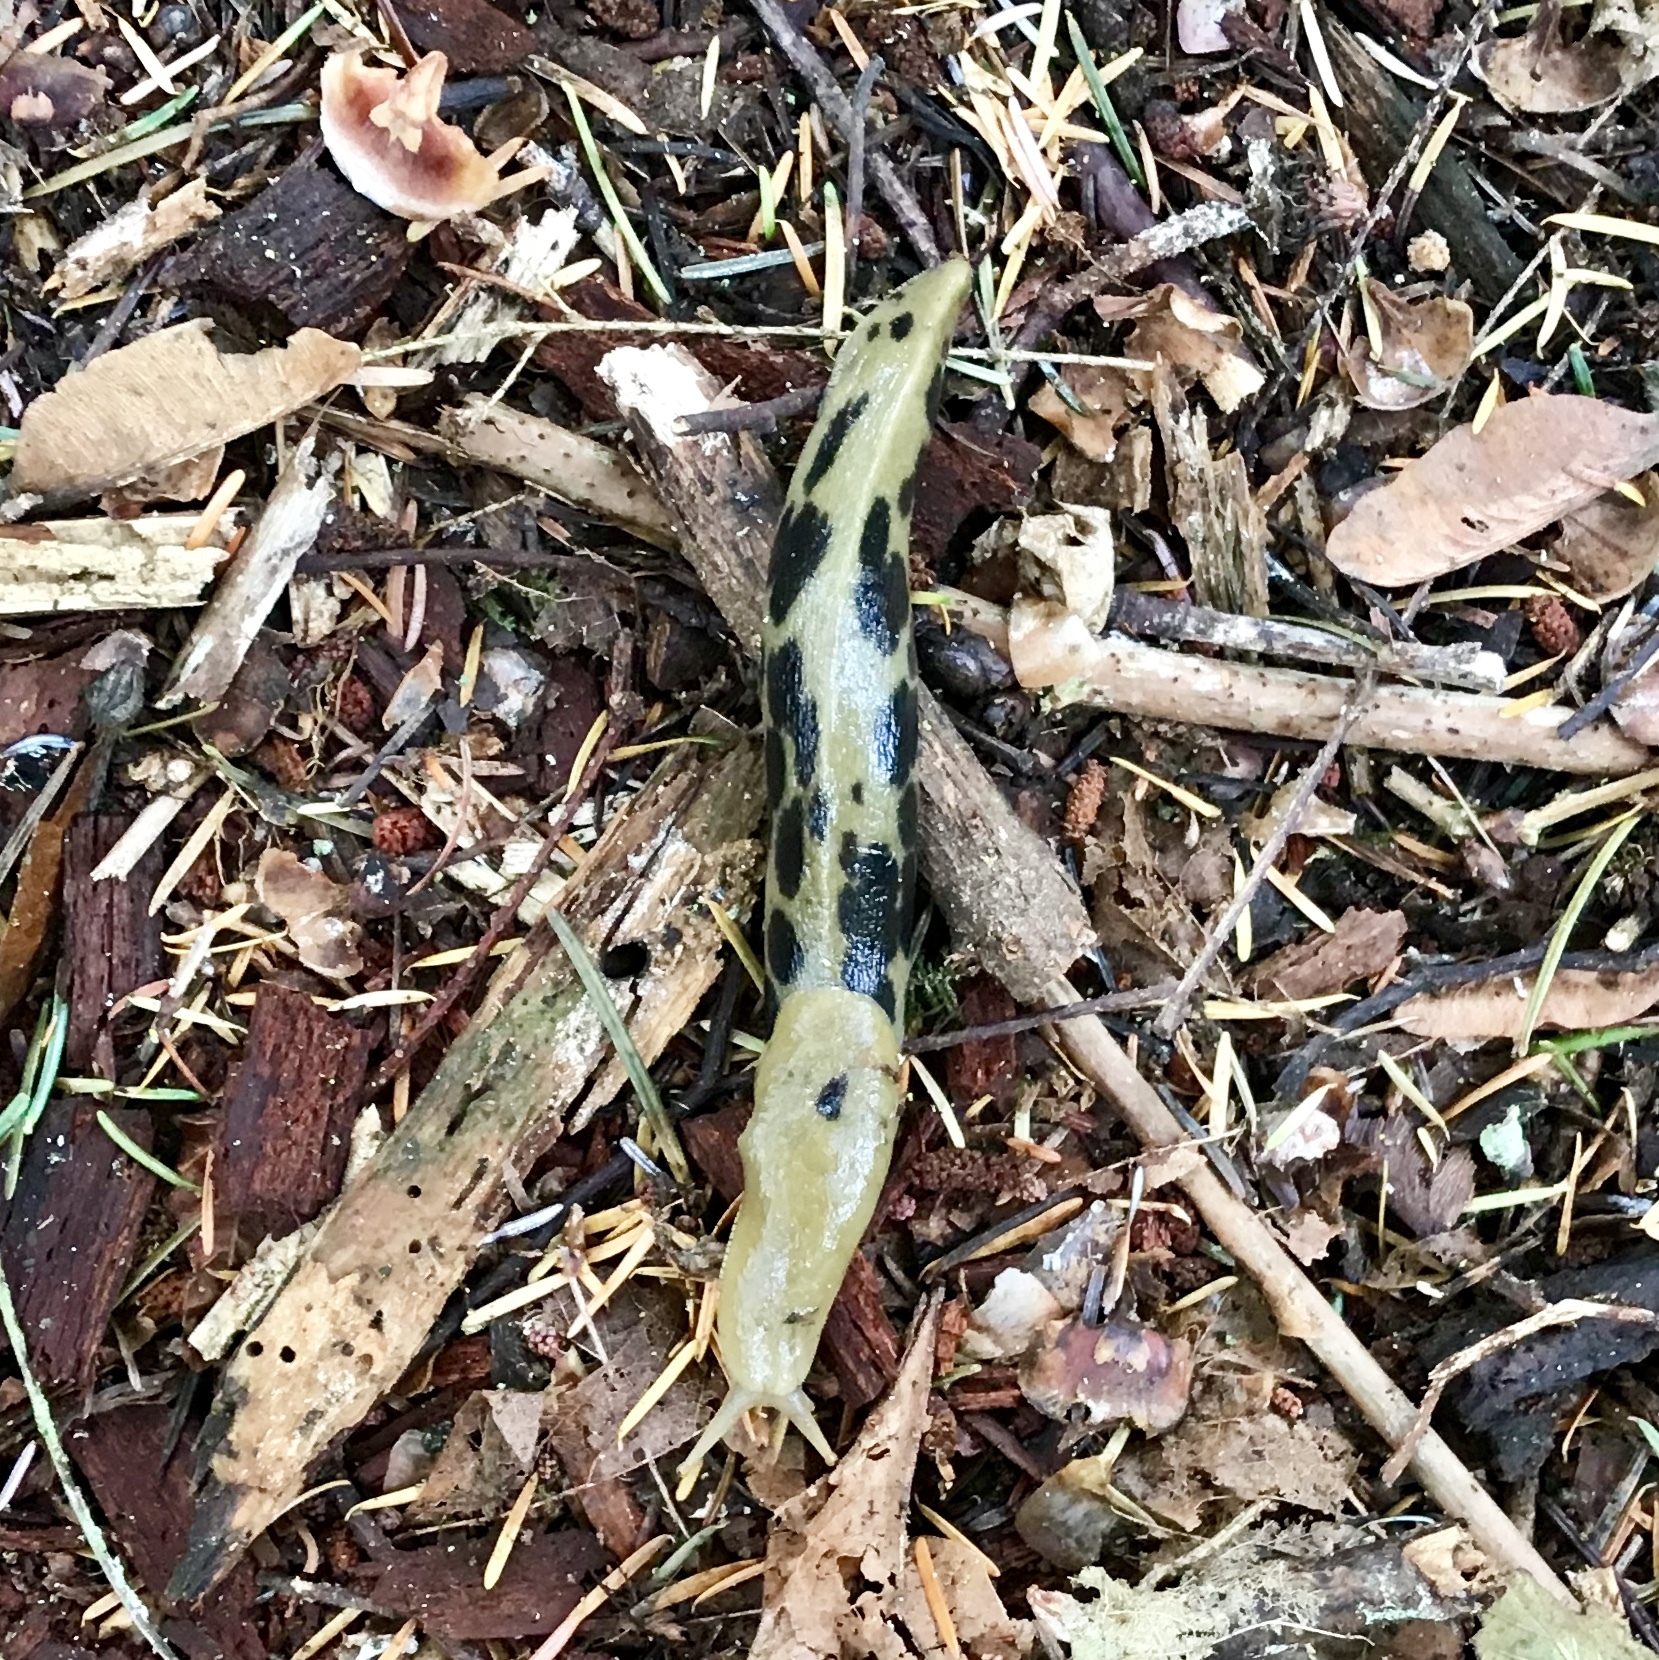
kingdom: Animalia
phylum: Mollusca
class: Gastropoda
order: Stylommatophora
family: Ariolimacidae
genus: Ariolimax
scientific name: Ariolimax columbianus
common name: Pacific banana slug
